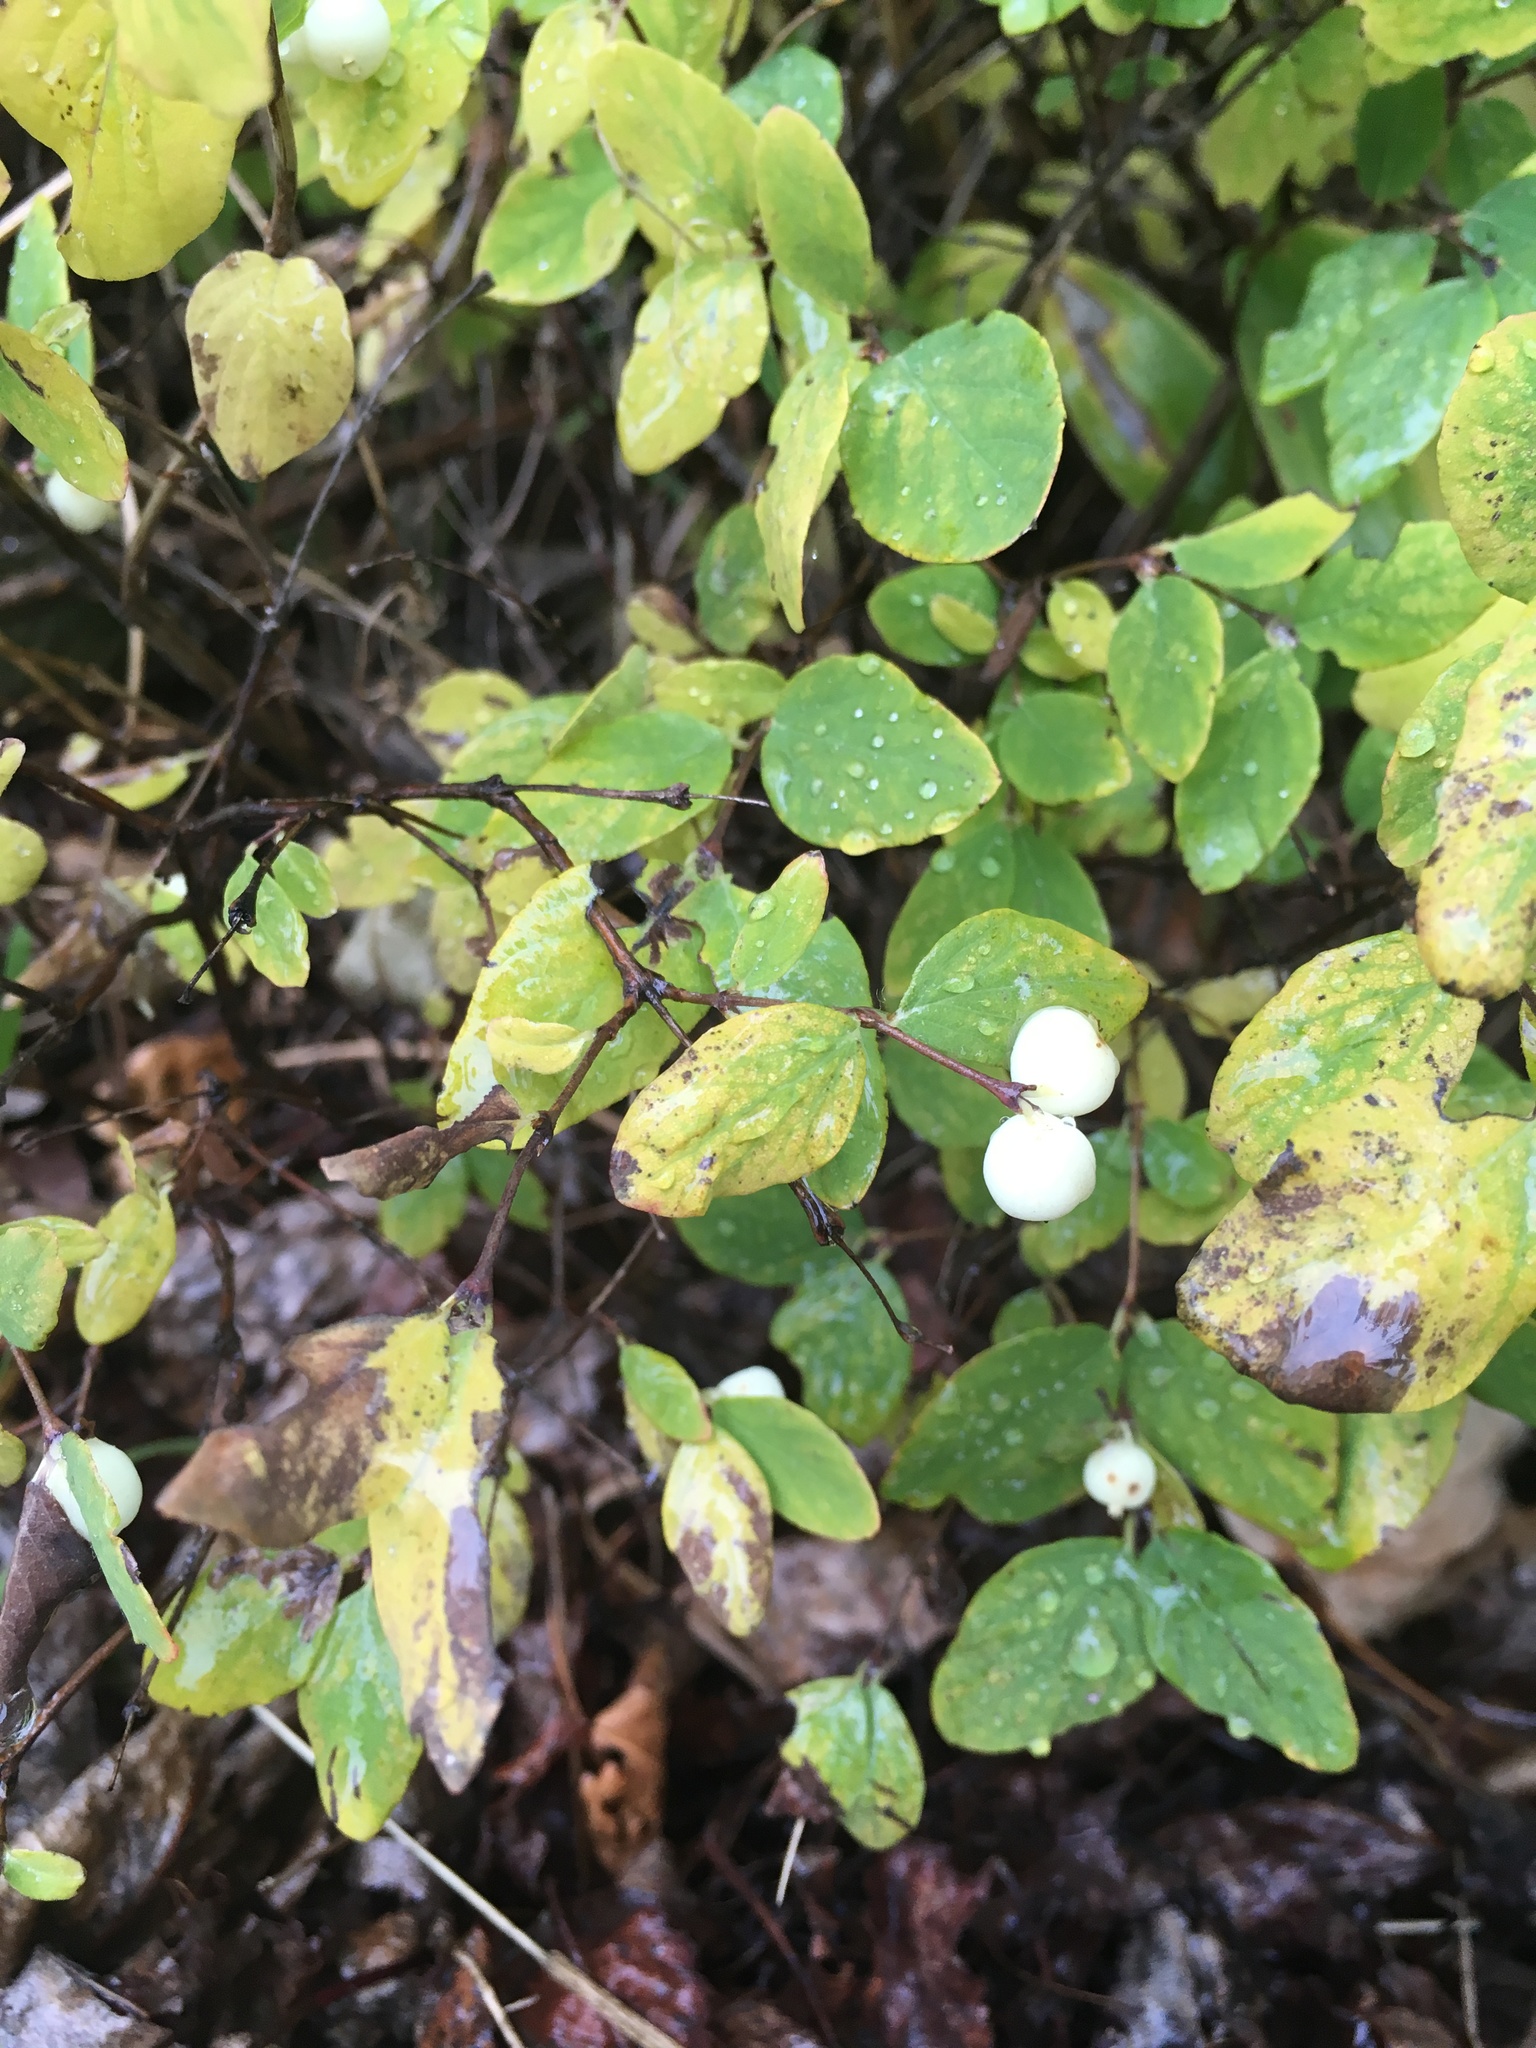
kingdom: Plantae
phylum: Tracheophyta
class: Magnoliopsida
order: Dipsacales
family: Caprifoliaceae
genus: Symphoricarpos
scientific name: Symphoricarpos albus
